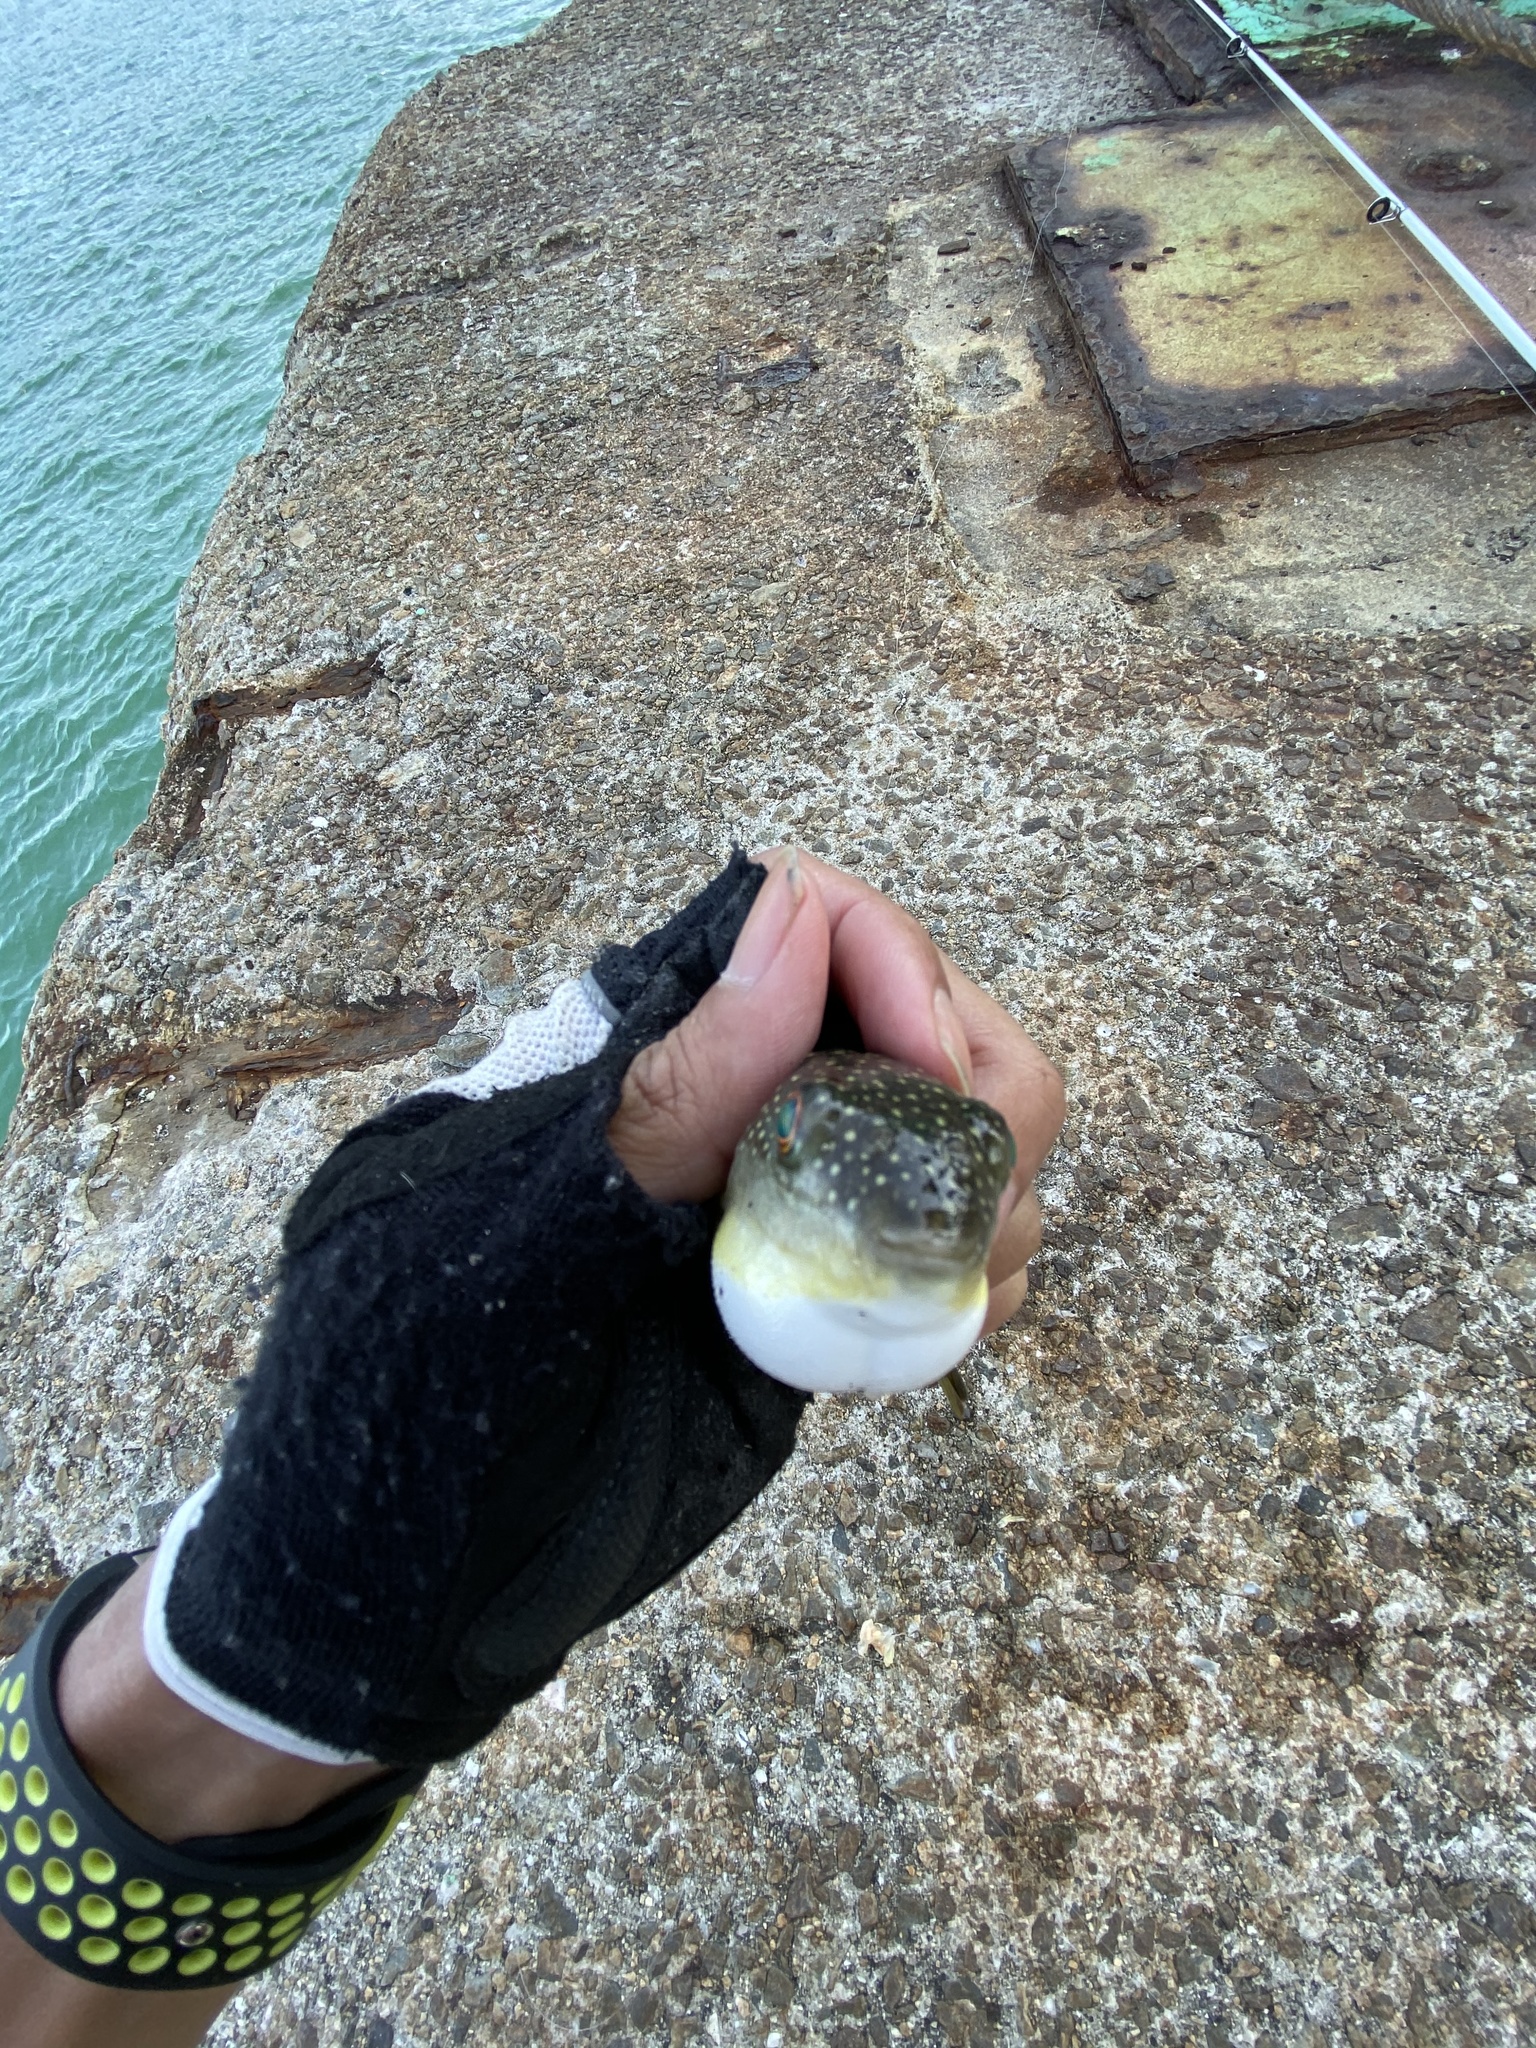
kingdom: Animalia
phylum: Chordata
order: Tetraodontiformes
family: Tetraodontidae
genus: Takifugu
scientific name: Takifugu alboplumbeus
